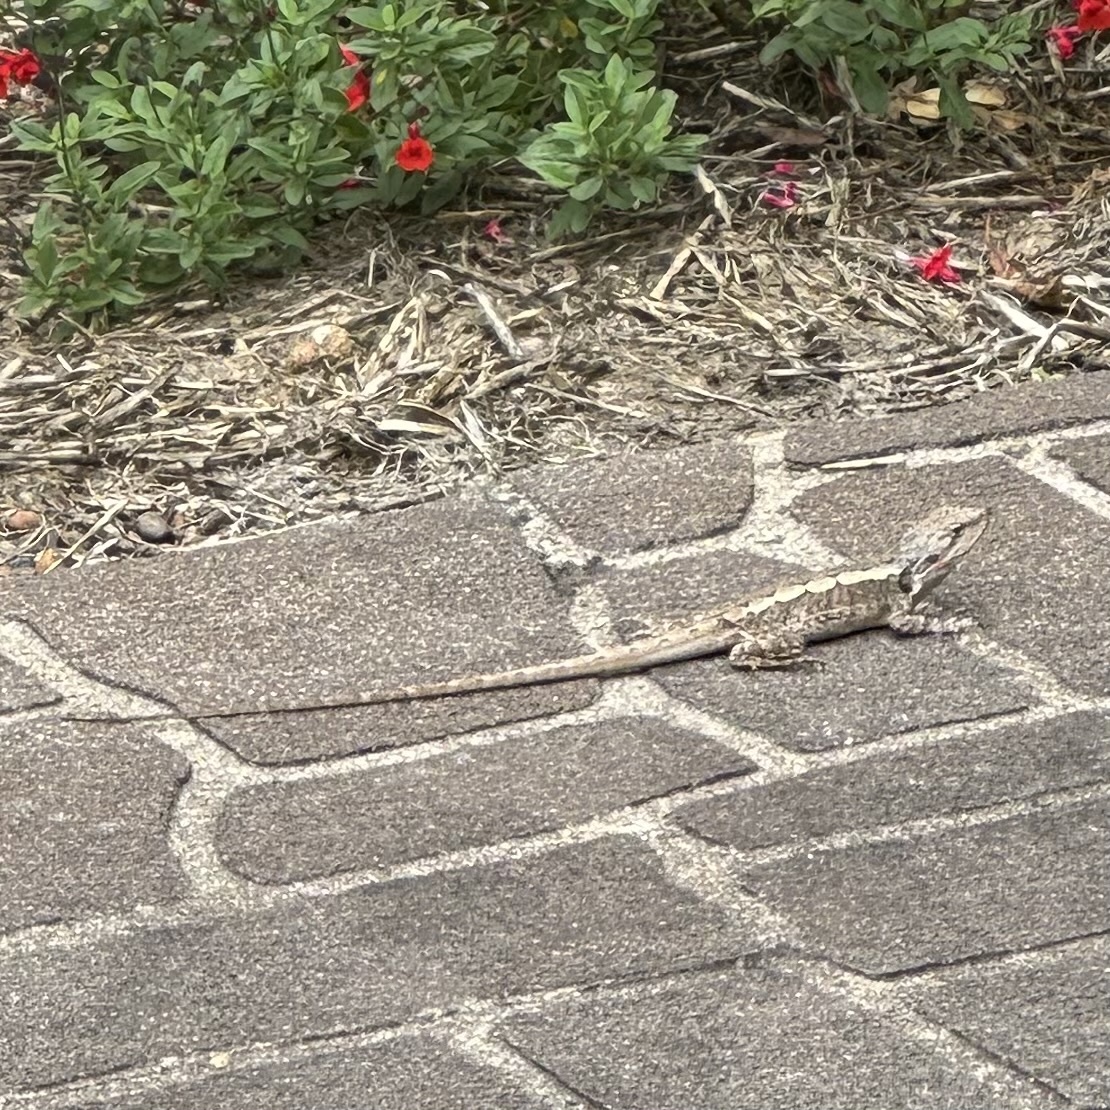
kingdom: Animalia
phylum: Chordata
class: Squamata
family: Agamidae
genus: Amphibolurus
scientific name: Amphibolurus muricatus
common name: Jacky lizard
